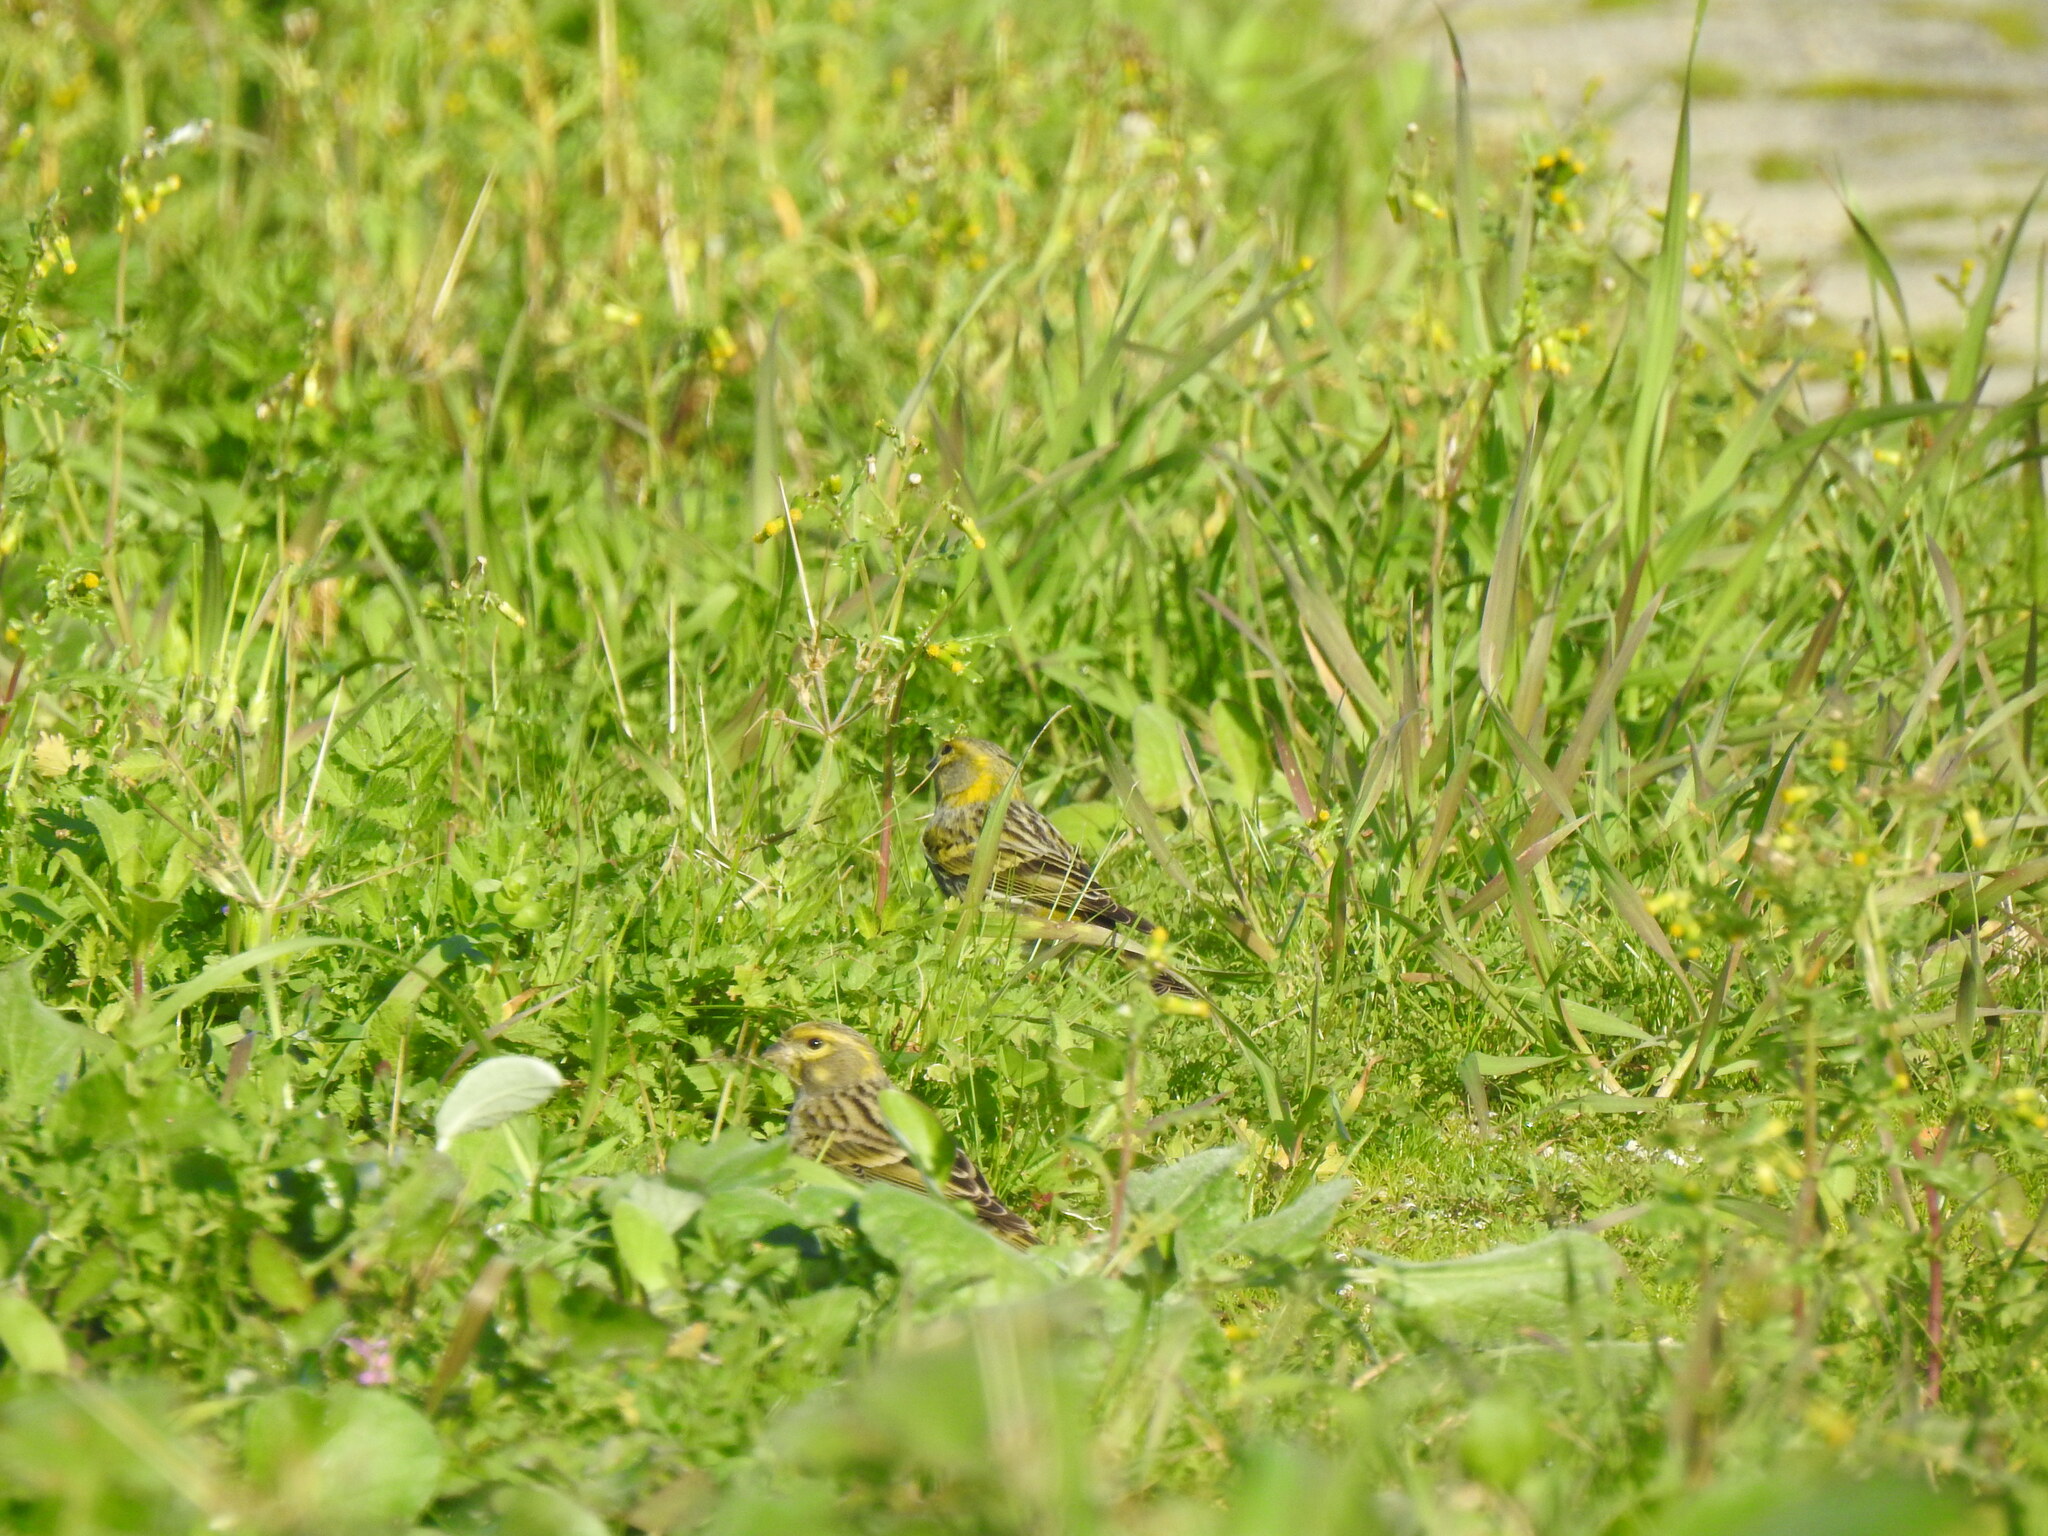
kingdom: Animalia
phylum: Chordata
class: Aves
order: Passeriformes
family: Fringillidae
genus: Serinus
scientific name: Serinus serinus
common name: European serin
